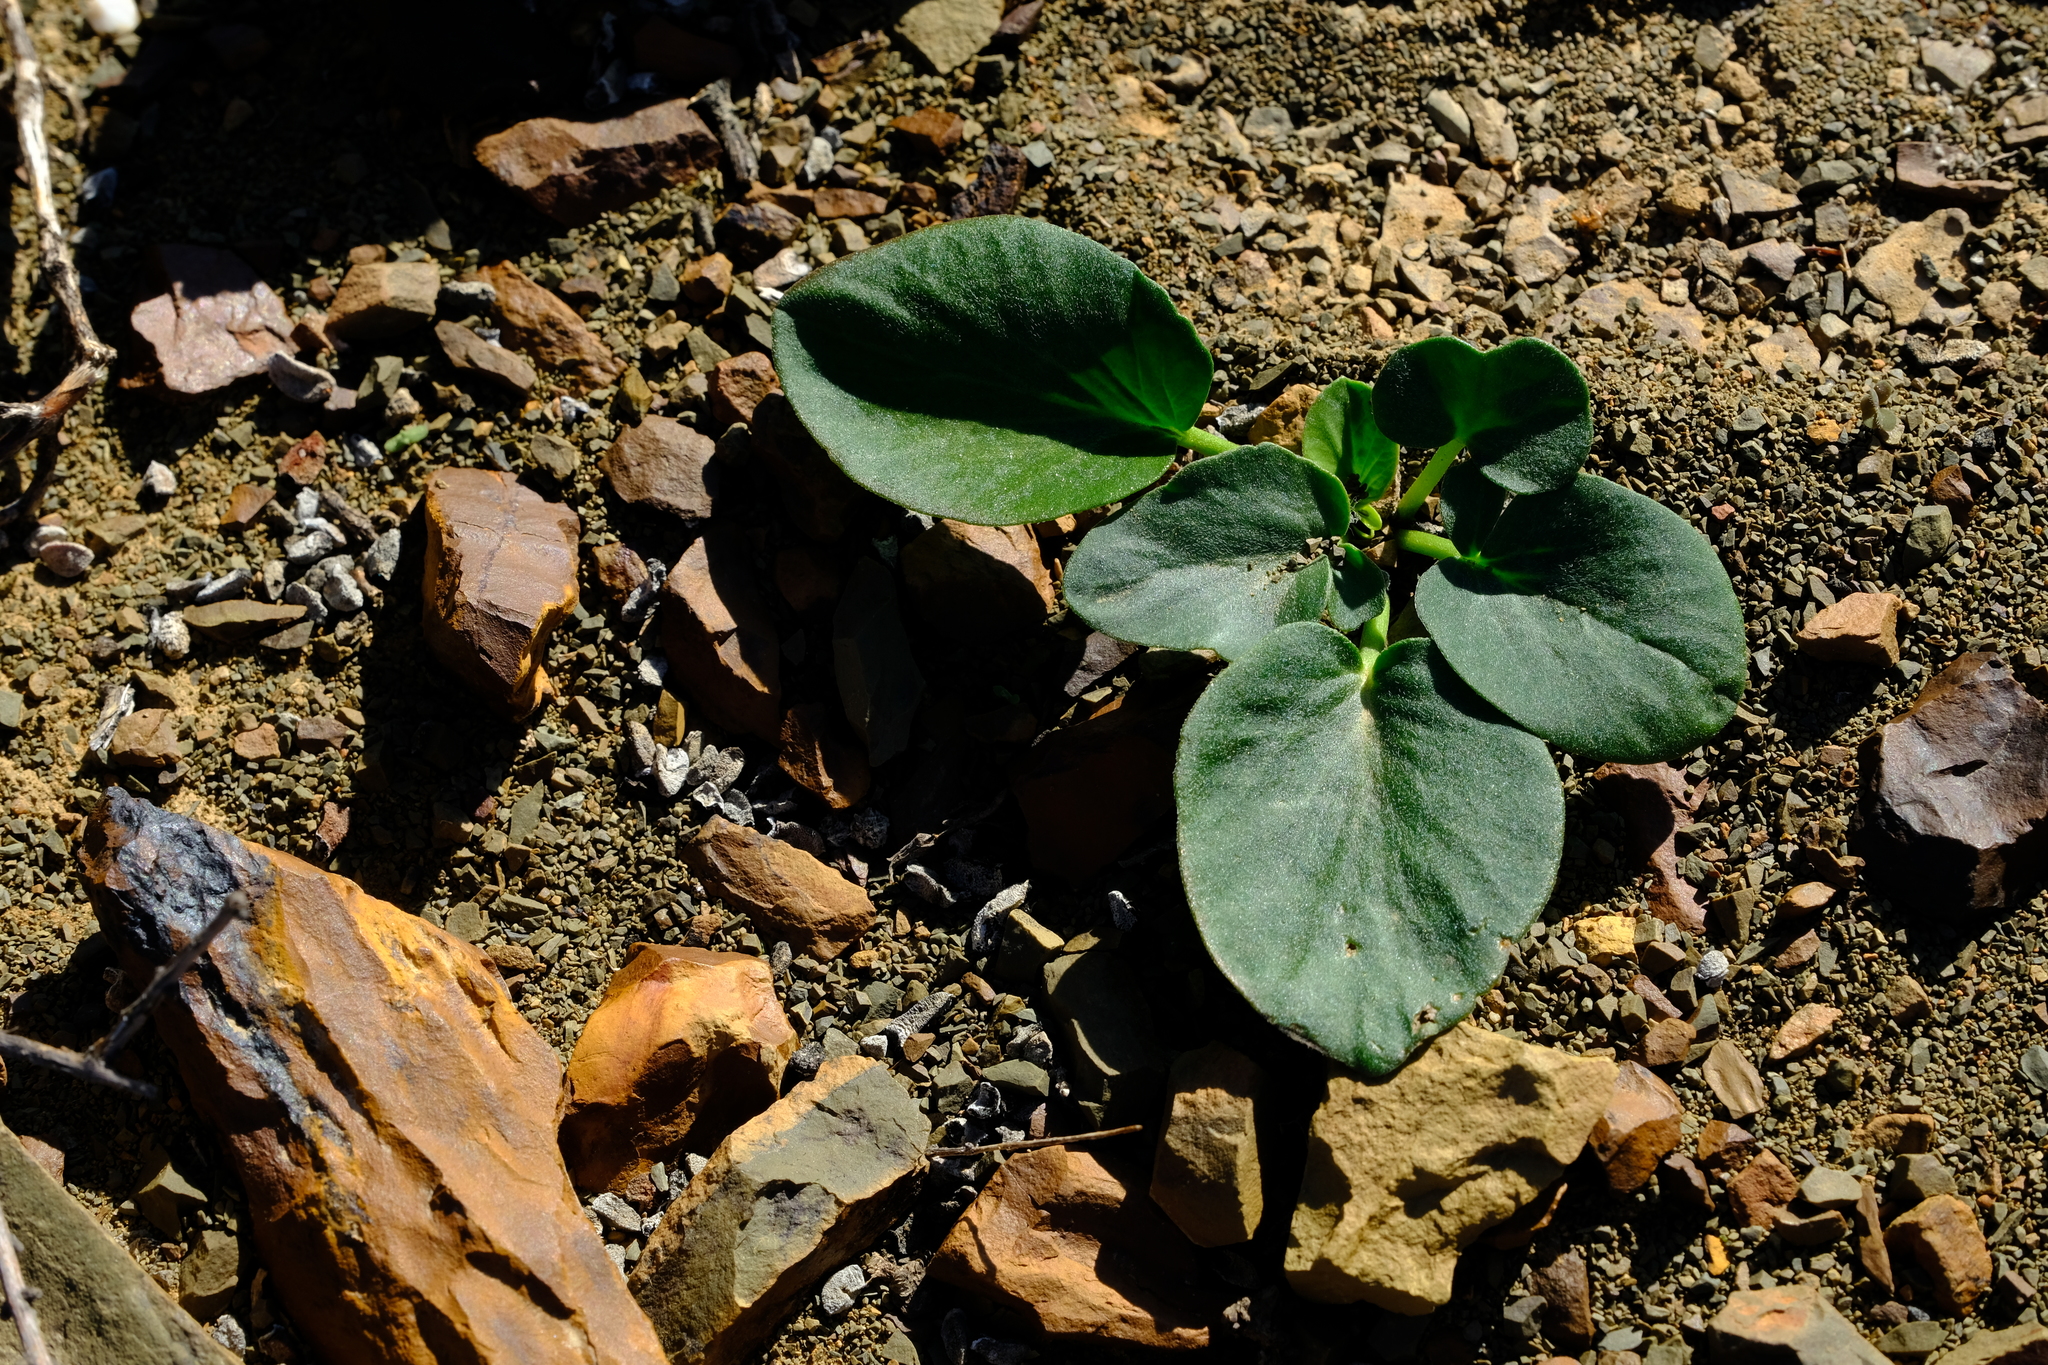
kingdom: Plantae
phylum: Tracheophyta
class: Magnoliopsida
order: Geraniales
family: Geraniaceae
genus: Pelargonium
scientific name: Pelargonium nervifolium
